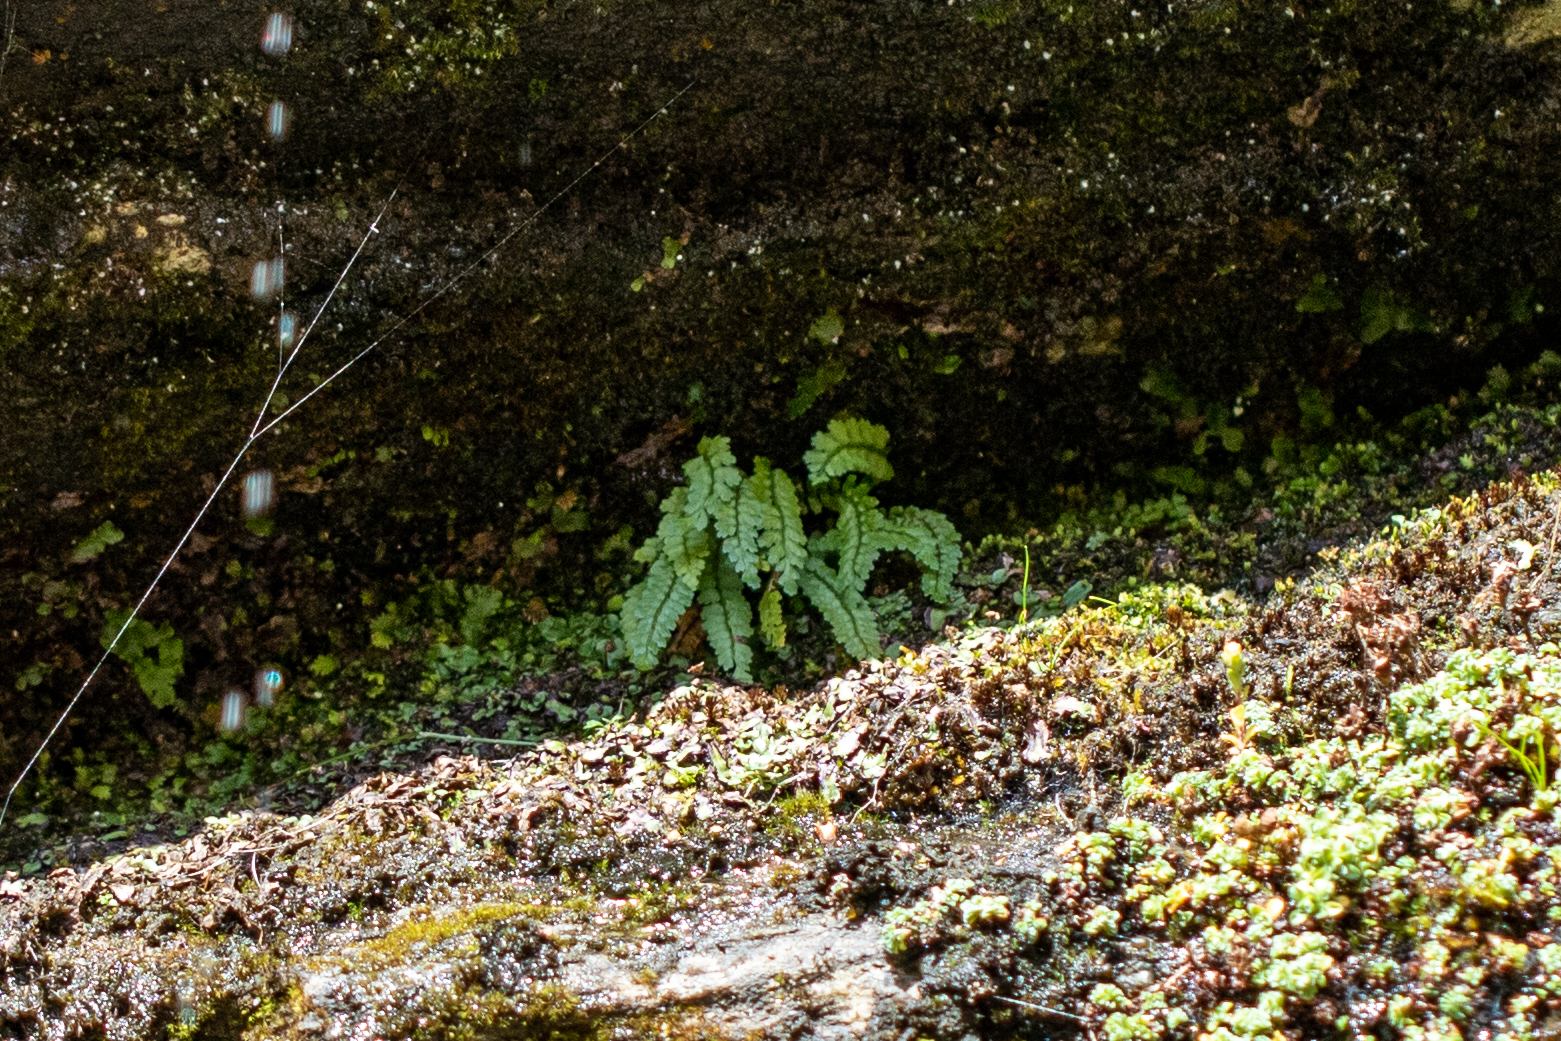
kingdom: Plantae
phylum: Tracheophyta
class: Polypodiopsida
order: Polypodiales
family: Aspleniaceae
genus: Asplenium
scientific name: Asplenium viride
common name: Green spleenwort
